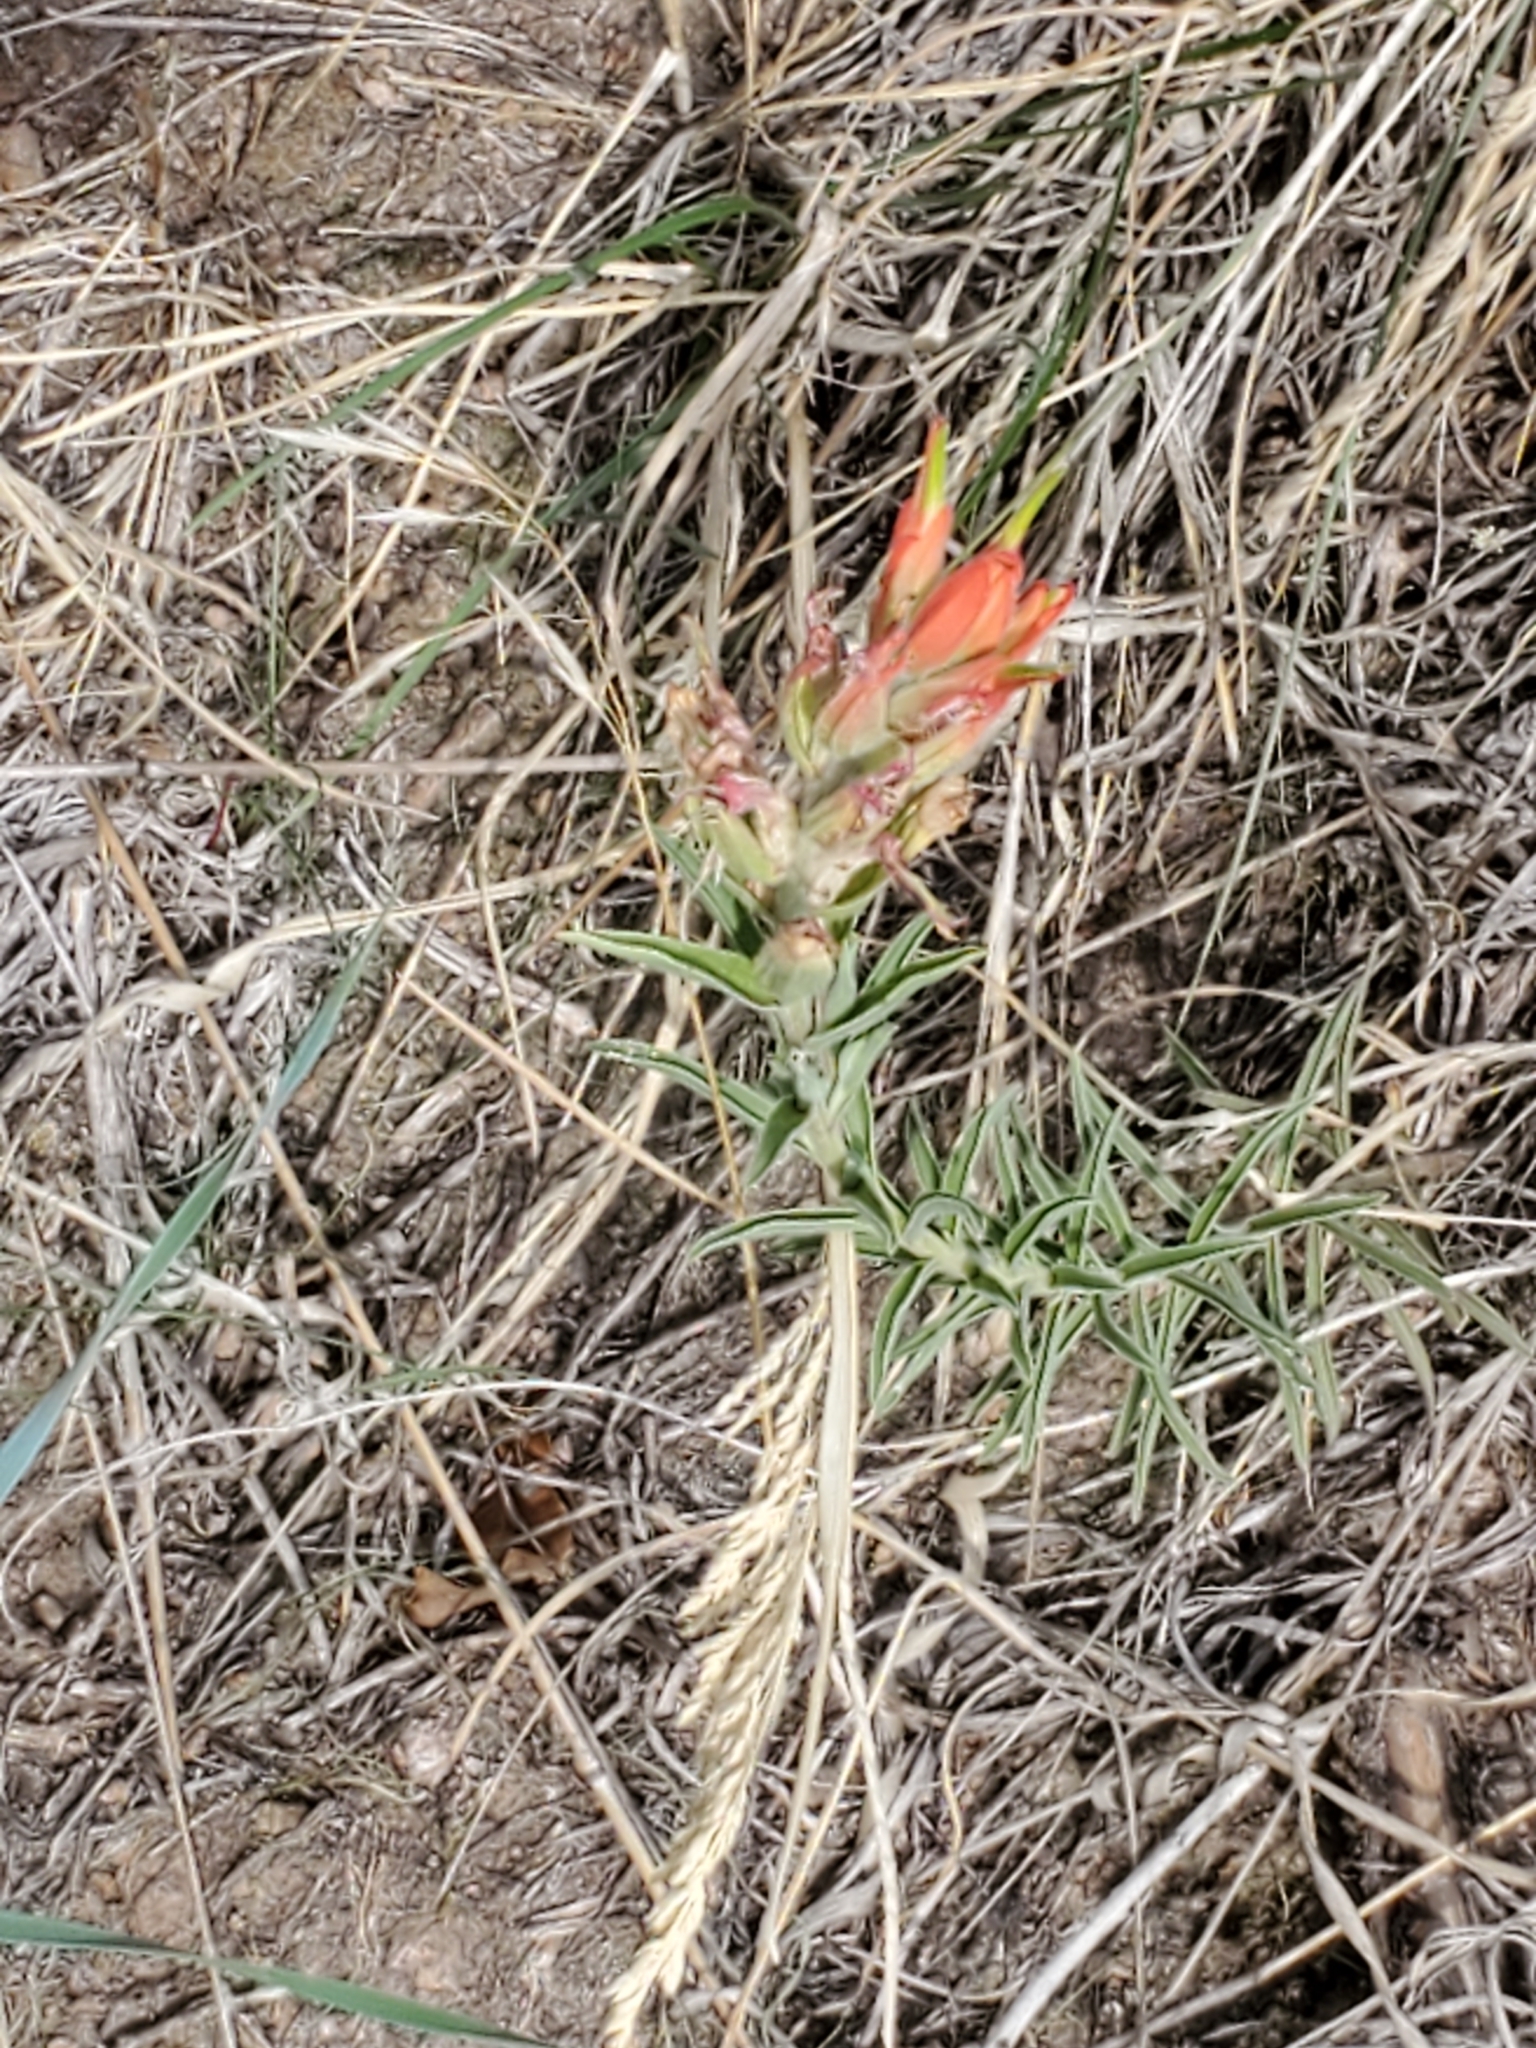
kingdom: Plantae
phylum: Tracheophyta
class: Magnoliopsida
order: Lamiales
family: Orobanchaceae
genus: Castilleja
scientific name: Castilleja integra
